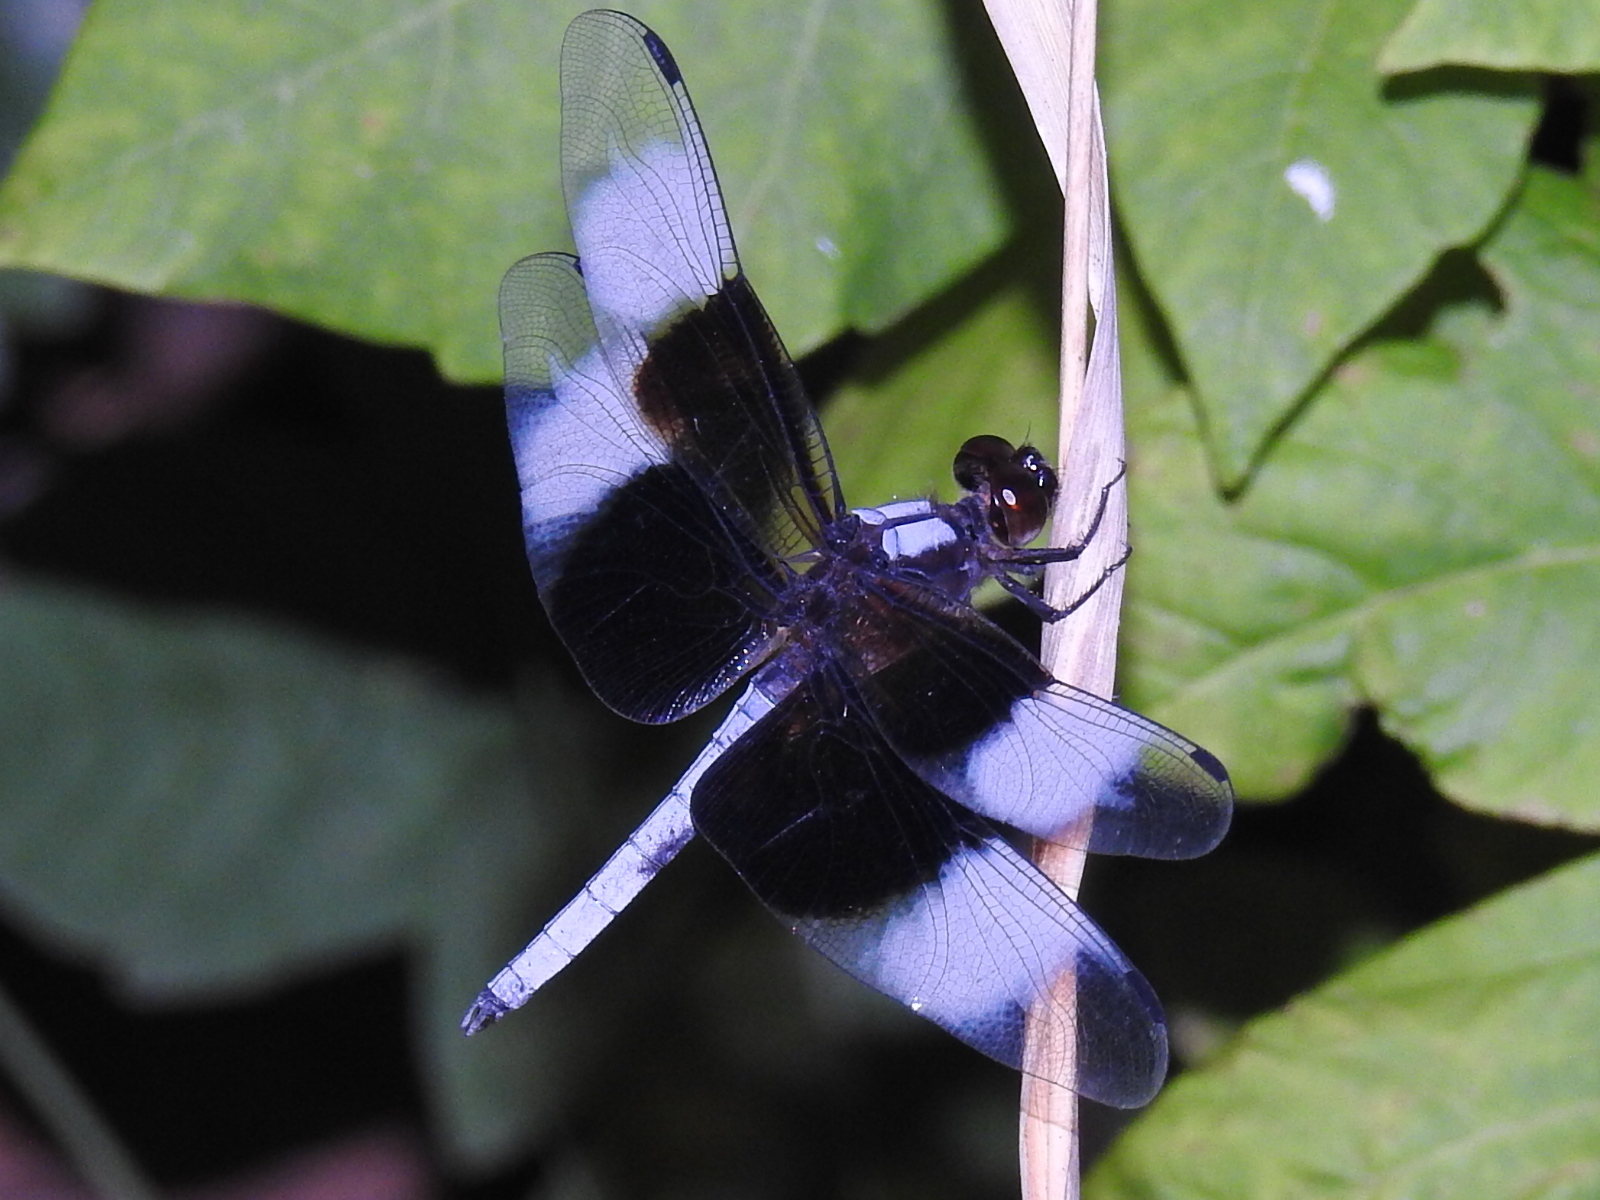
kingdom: Animalia
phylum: Arthropoda
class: Insecta
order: Odonata
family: Libellulidae
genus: Libellula
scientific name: Libellula luctuosa
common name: Widow skimmer
